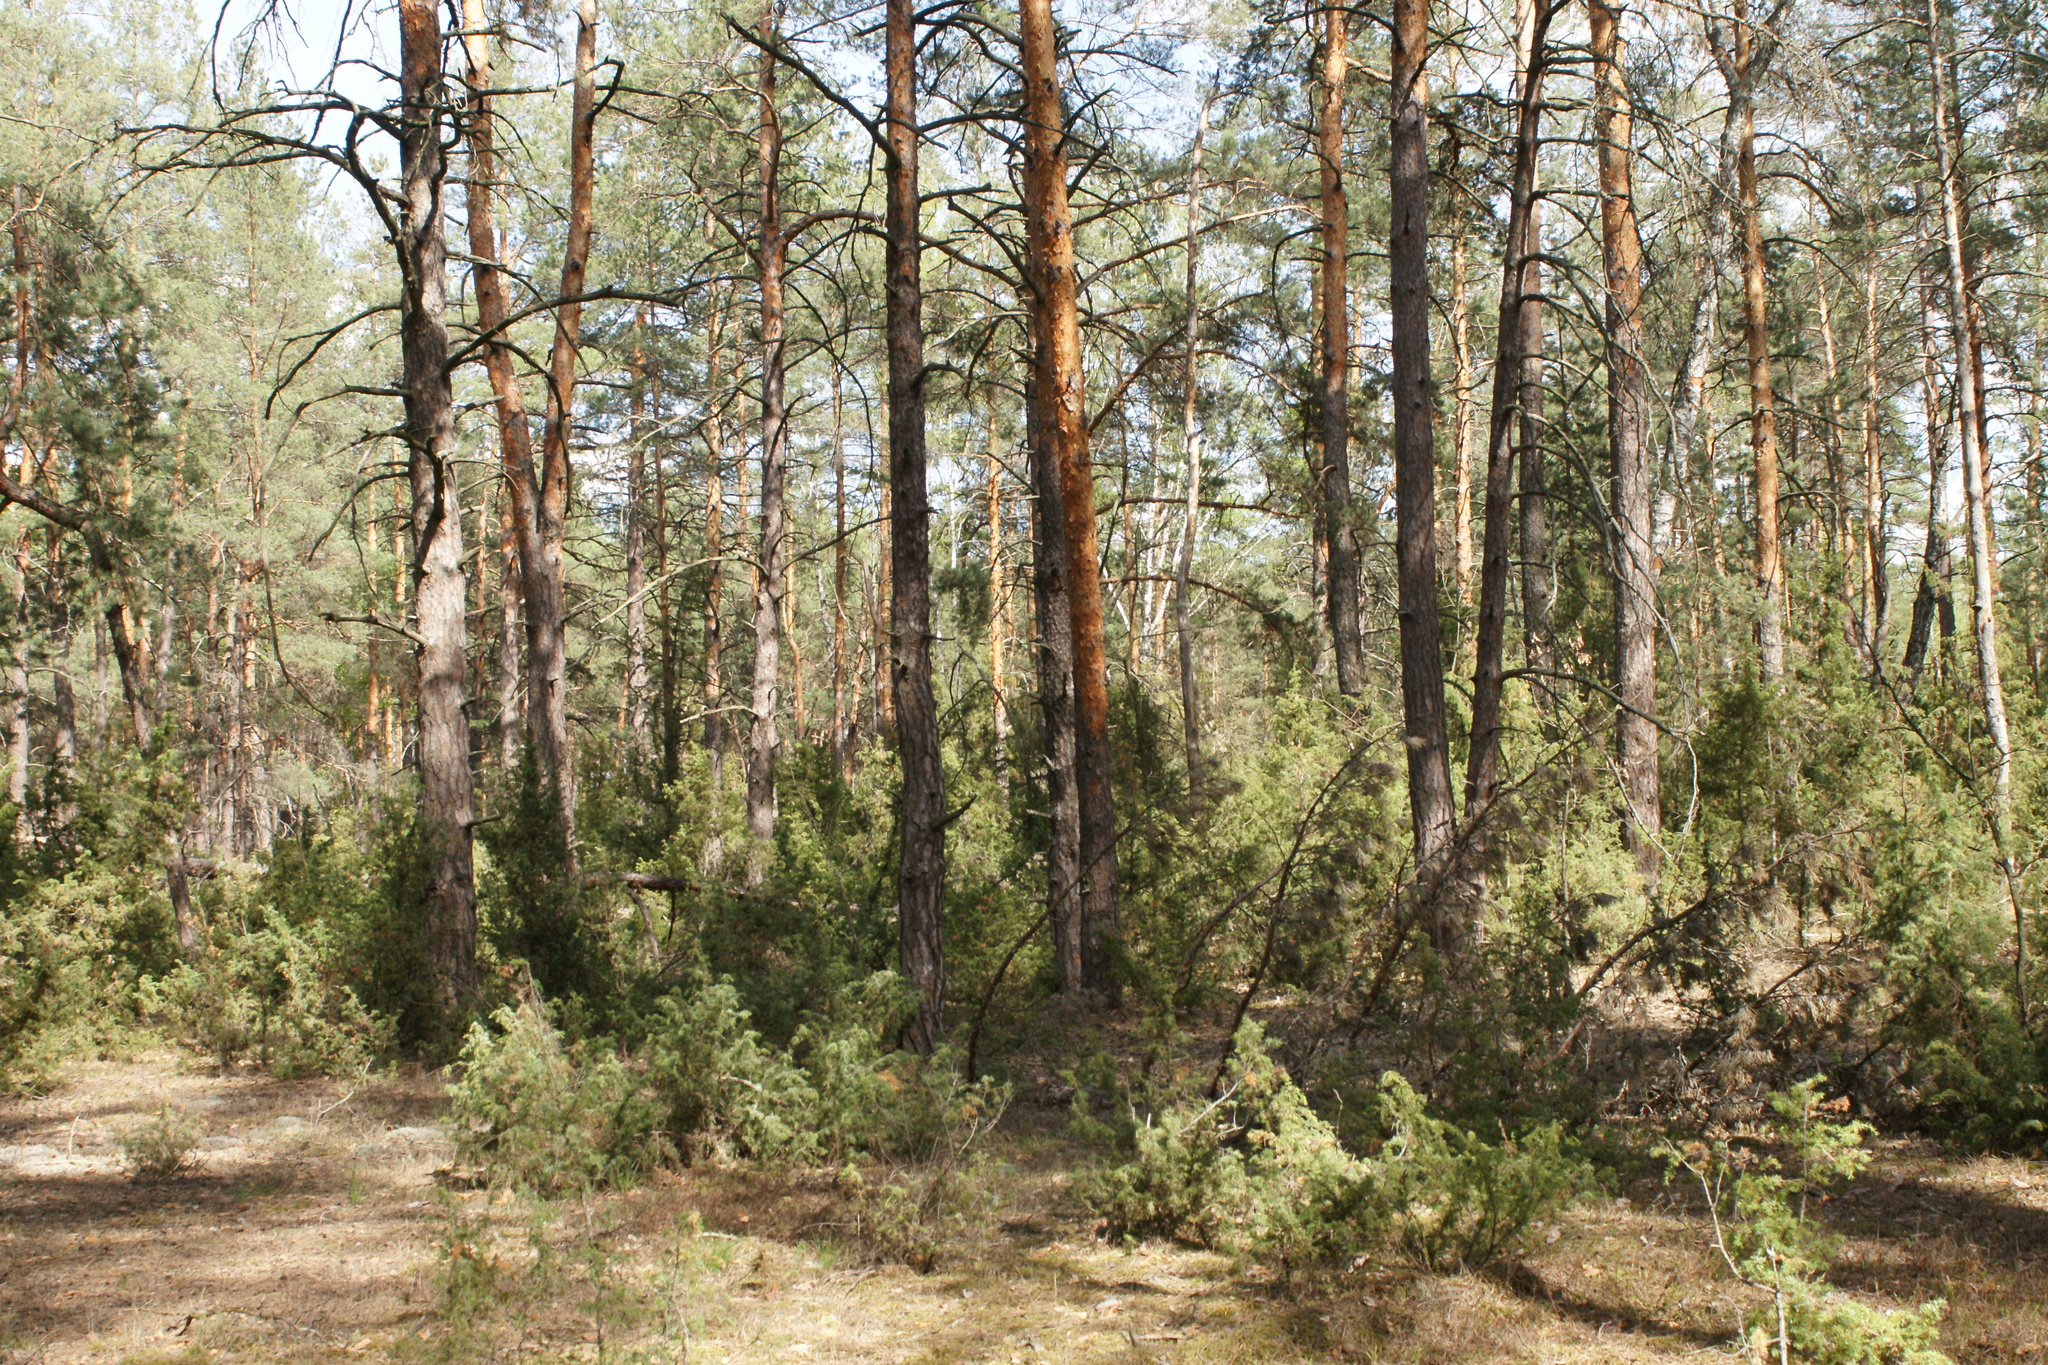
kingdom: Plantae
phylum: Tracheophyta
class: Pinopsida
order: Pinales
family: Cupressaceae
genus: Juniperus
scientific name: Juniperus communis
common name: Common juniper
